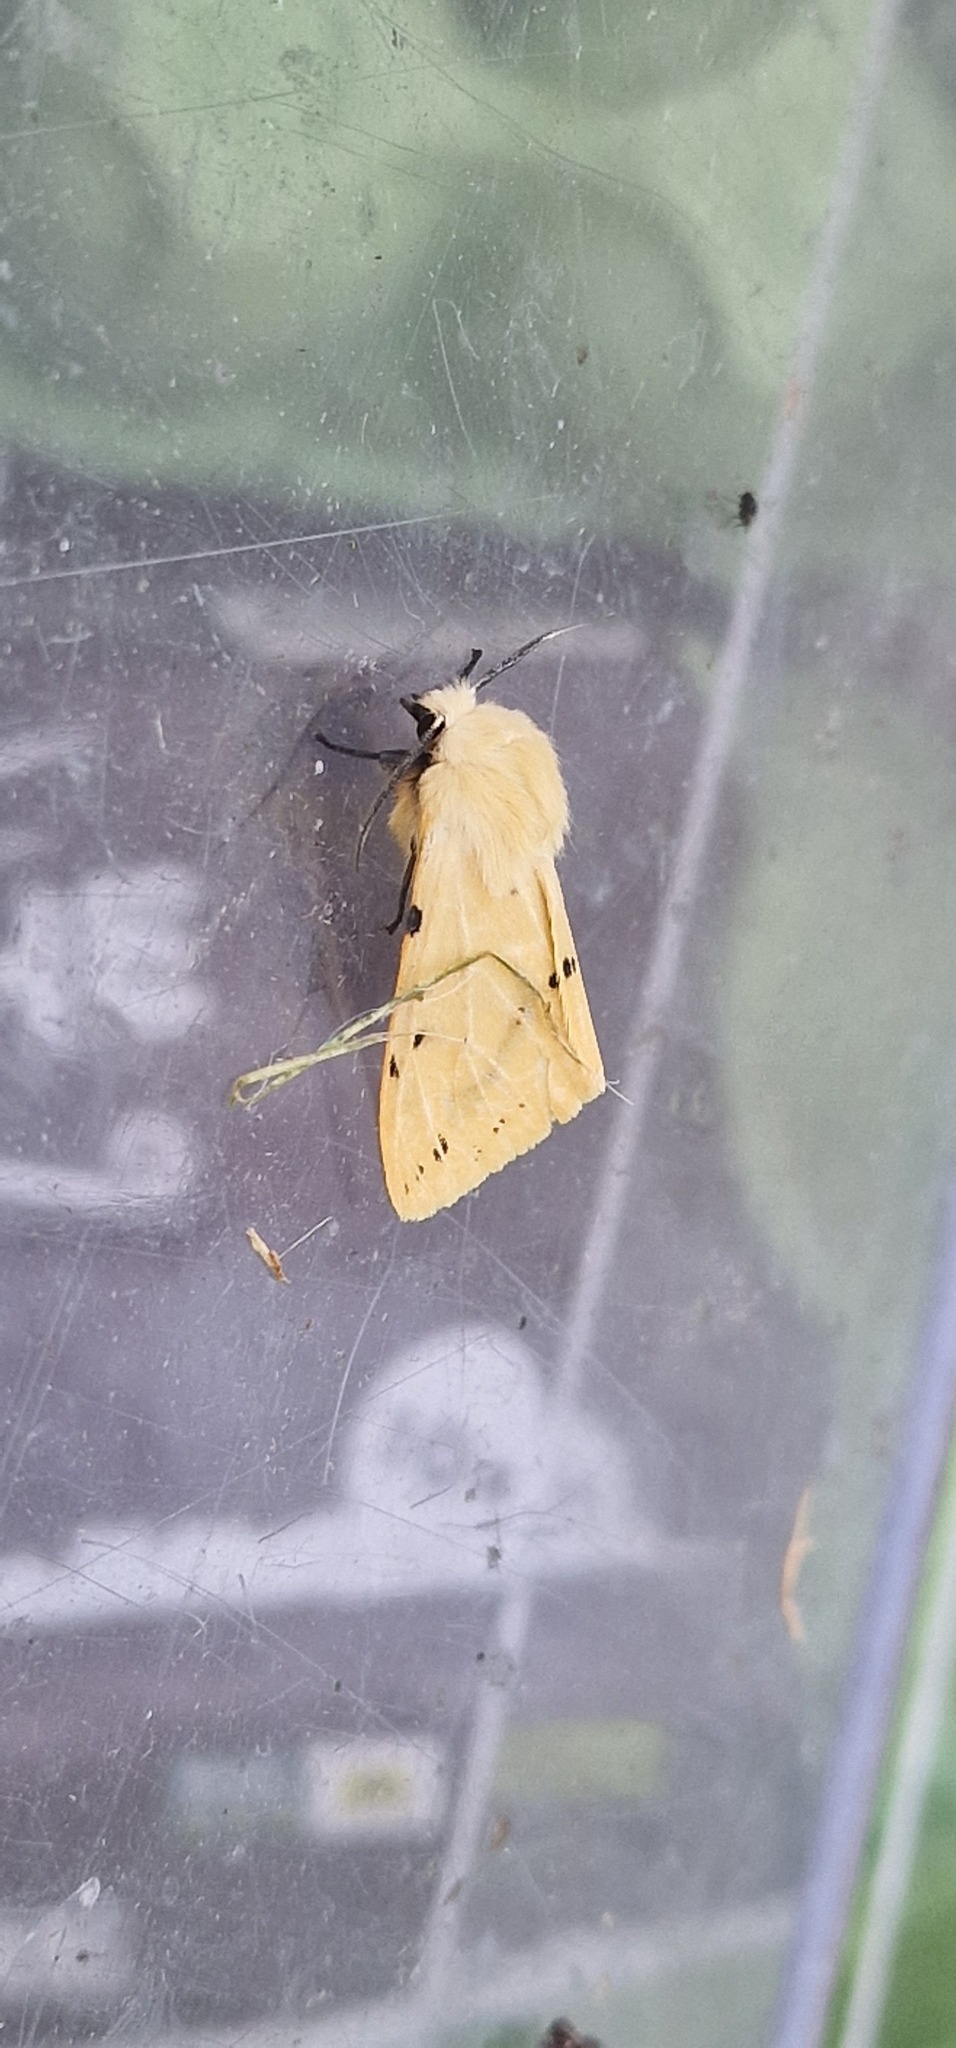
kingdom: Animalia
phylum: Arthropoda
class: Insecta
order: Lepidoptera
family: Erebidae
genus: Spilarctia
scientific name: Spilarctia lutea
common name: Buff ermine
